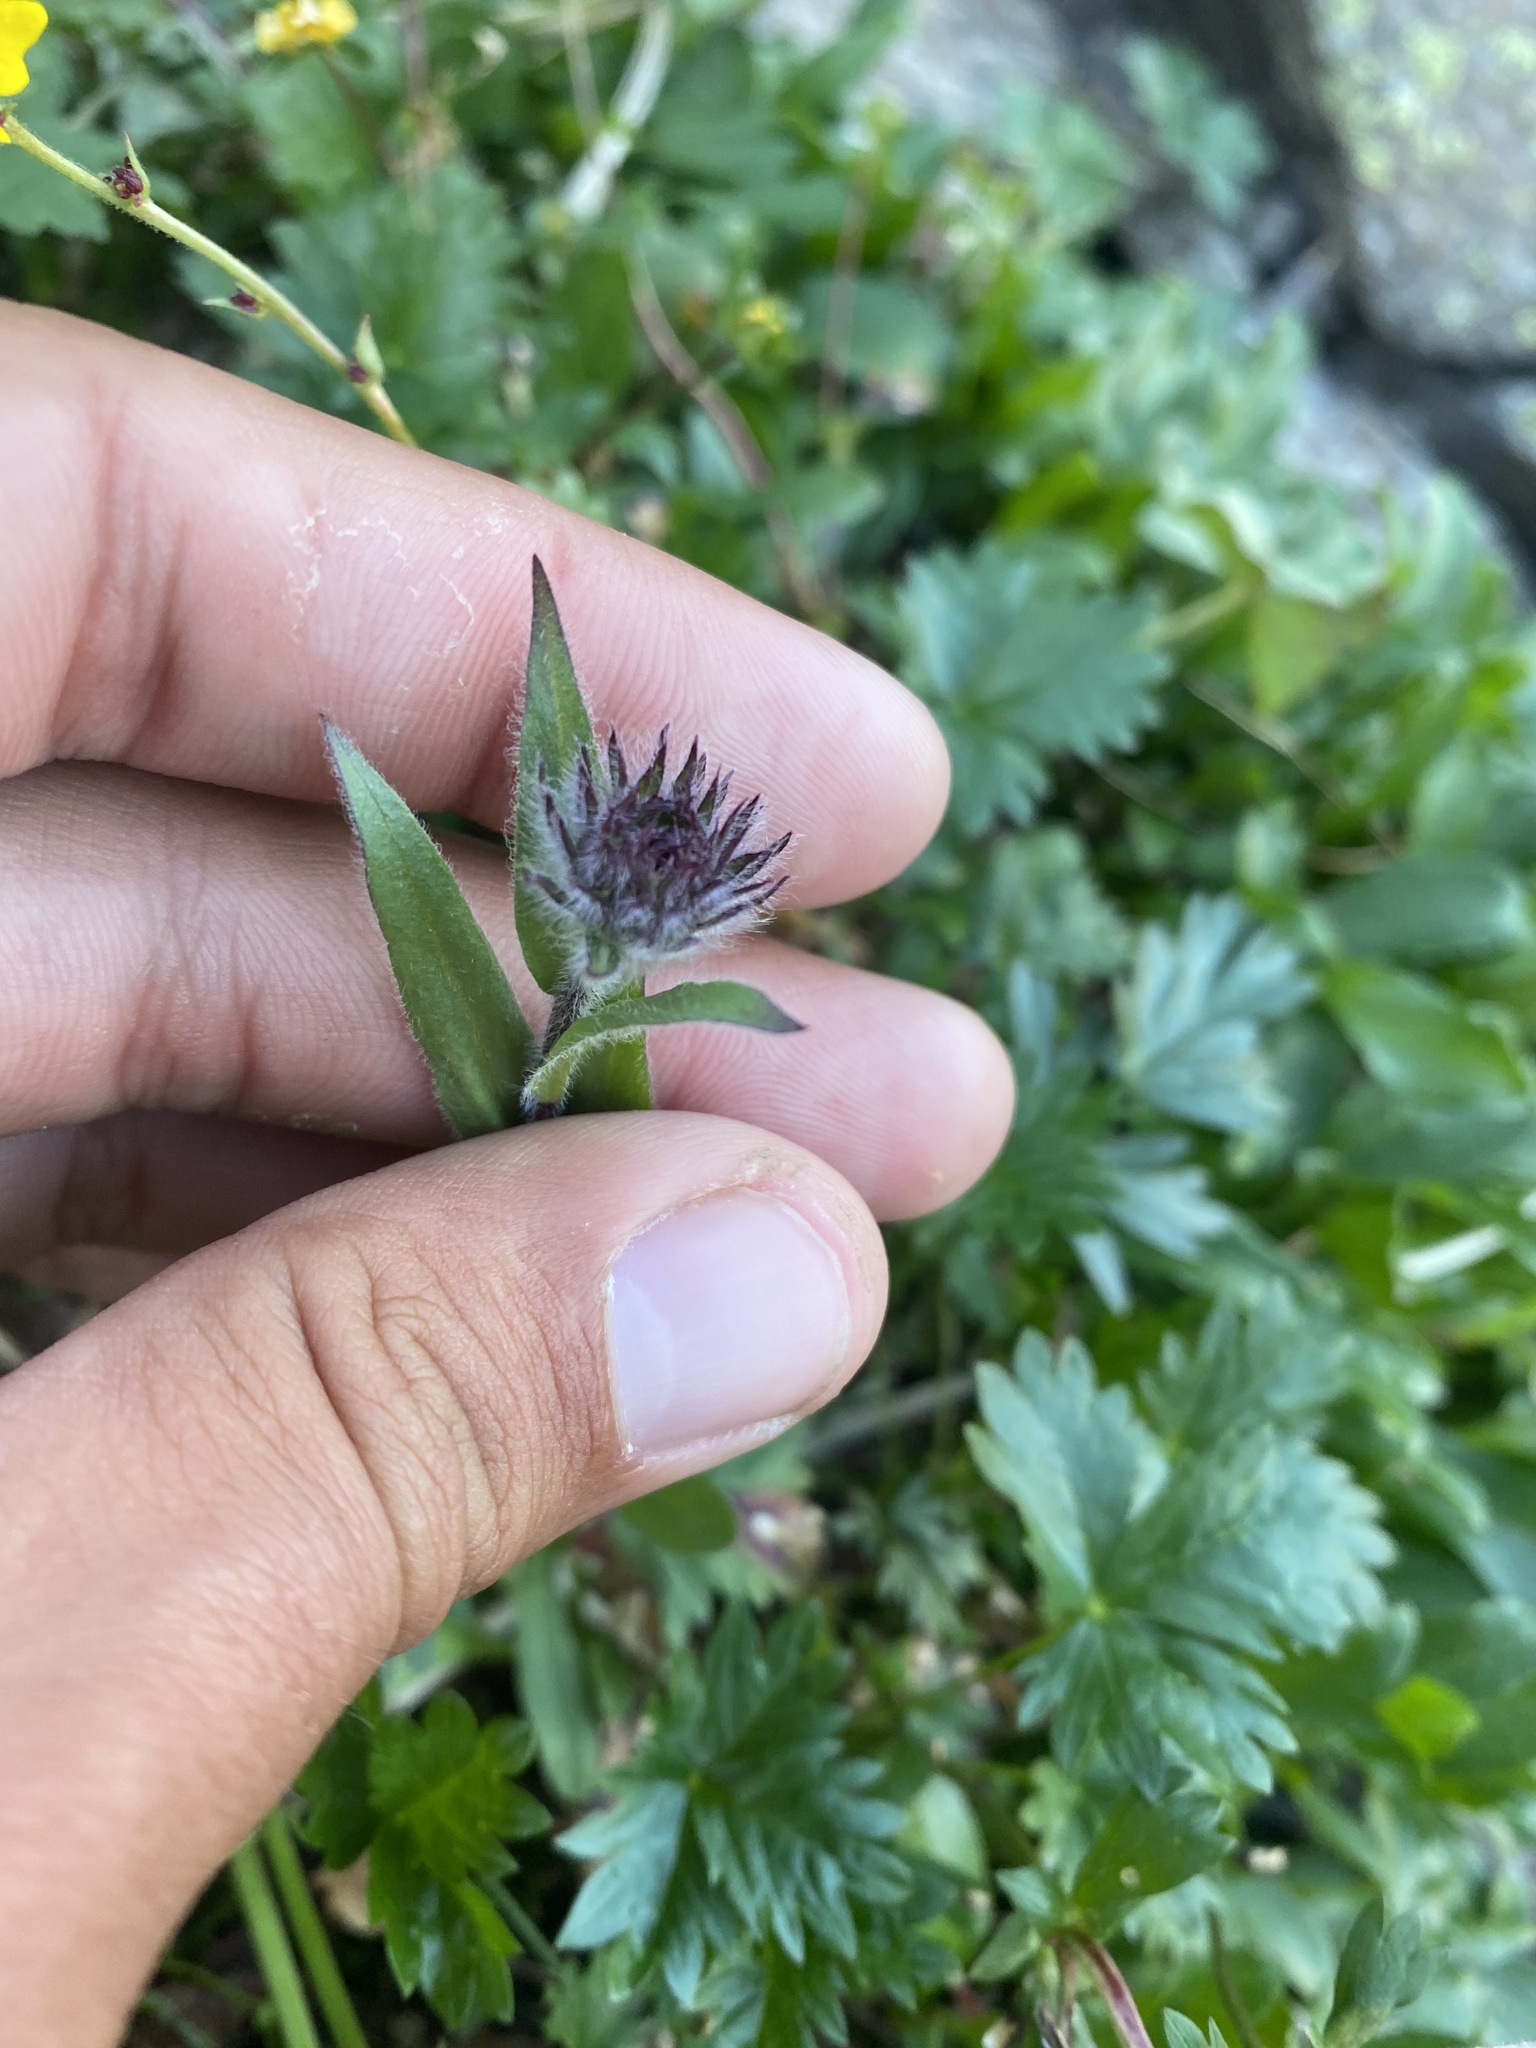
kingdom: Plantae
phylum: Tracheophyta
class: Magnoliopsida
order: Asterales
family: Asteraceae
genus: Erigeron
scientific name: Erigeron eriocephalus
